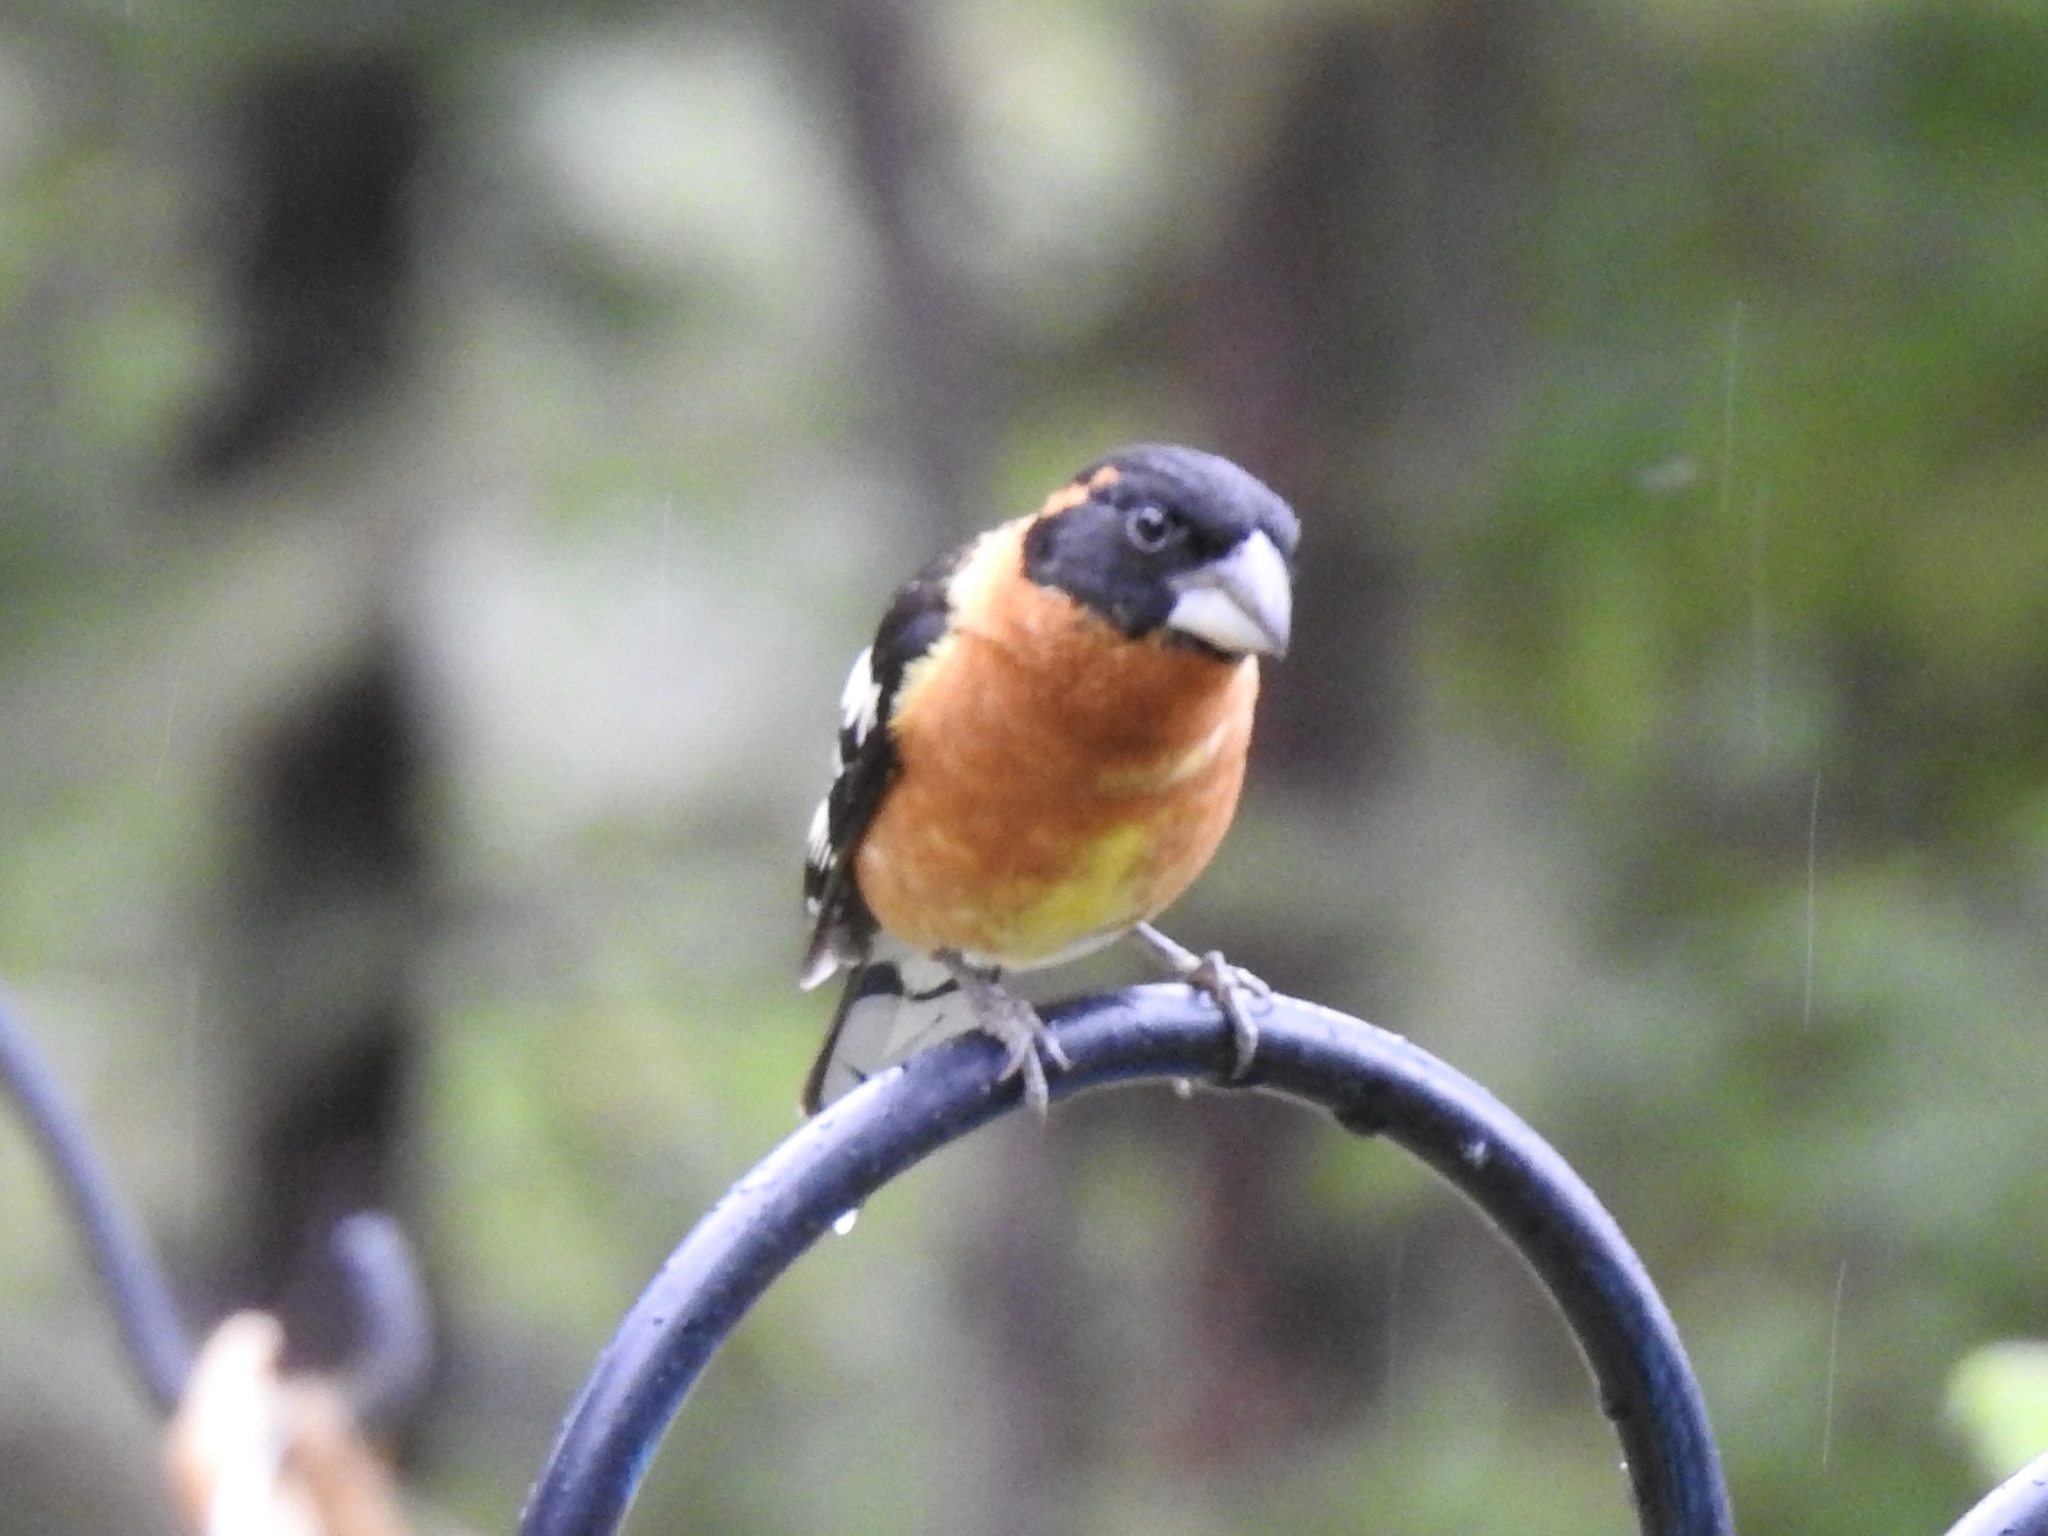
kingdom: Animalia
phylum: Chordata
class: Aves
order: Passeriformes
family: Cardinalidae
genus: Pheucticus
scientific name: Pheucticus melanocephalus
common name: Black-headed grosbeak
